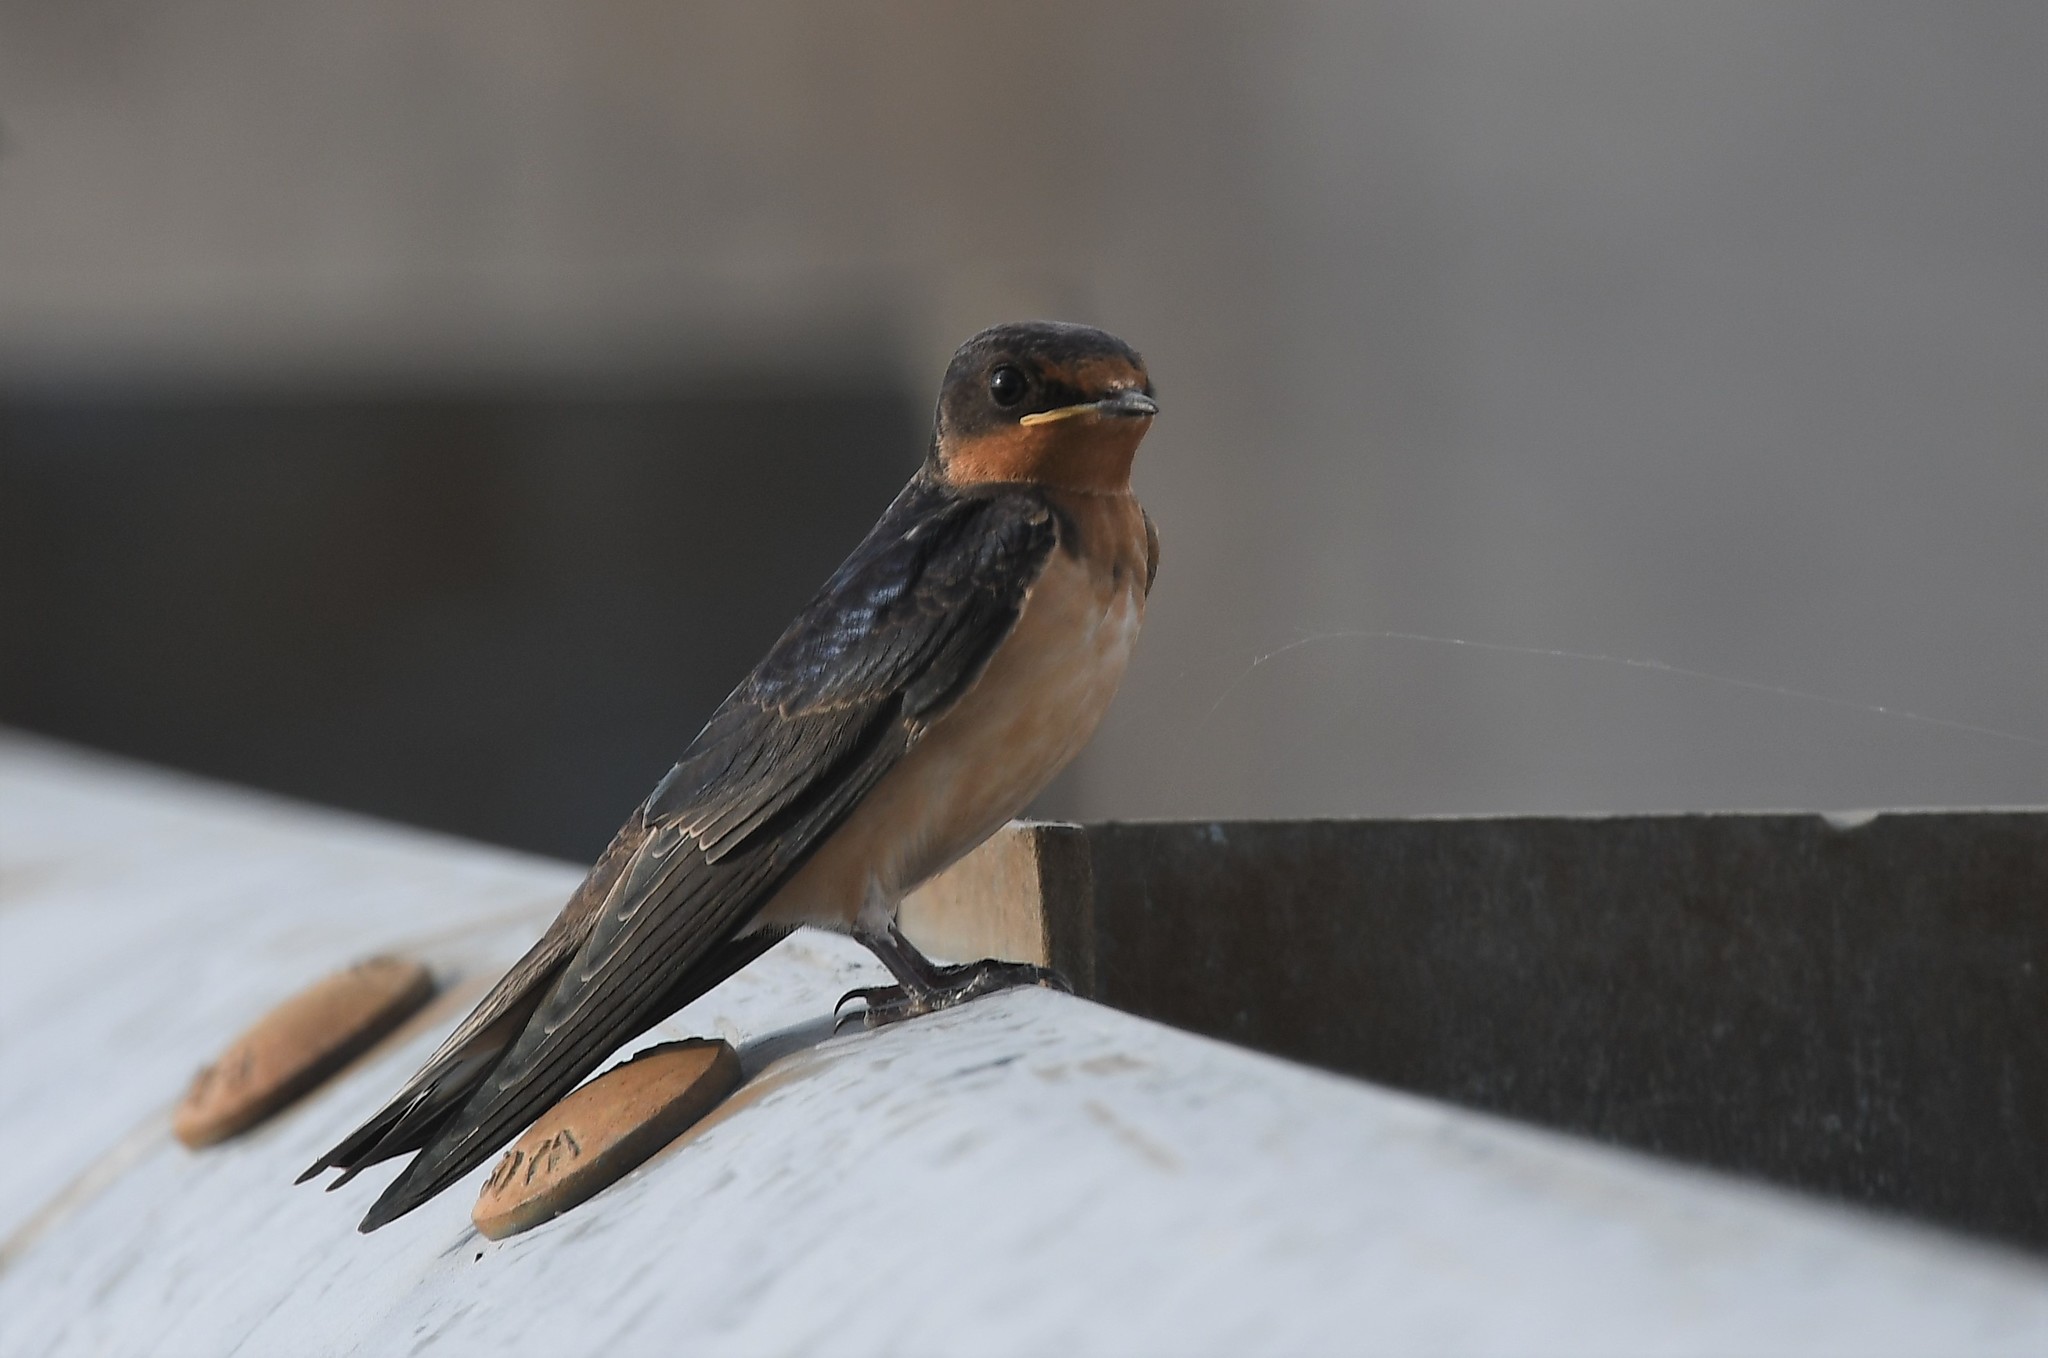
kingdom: Animalia
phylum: Chordata
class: Aves
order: Passeriformes
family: Hirundinidae
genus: Hirundo
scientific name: Hirundo rustica
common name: Barn swallow
